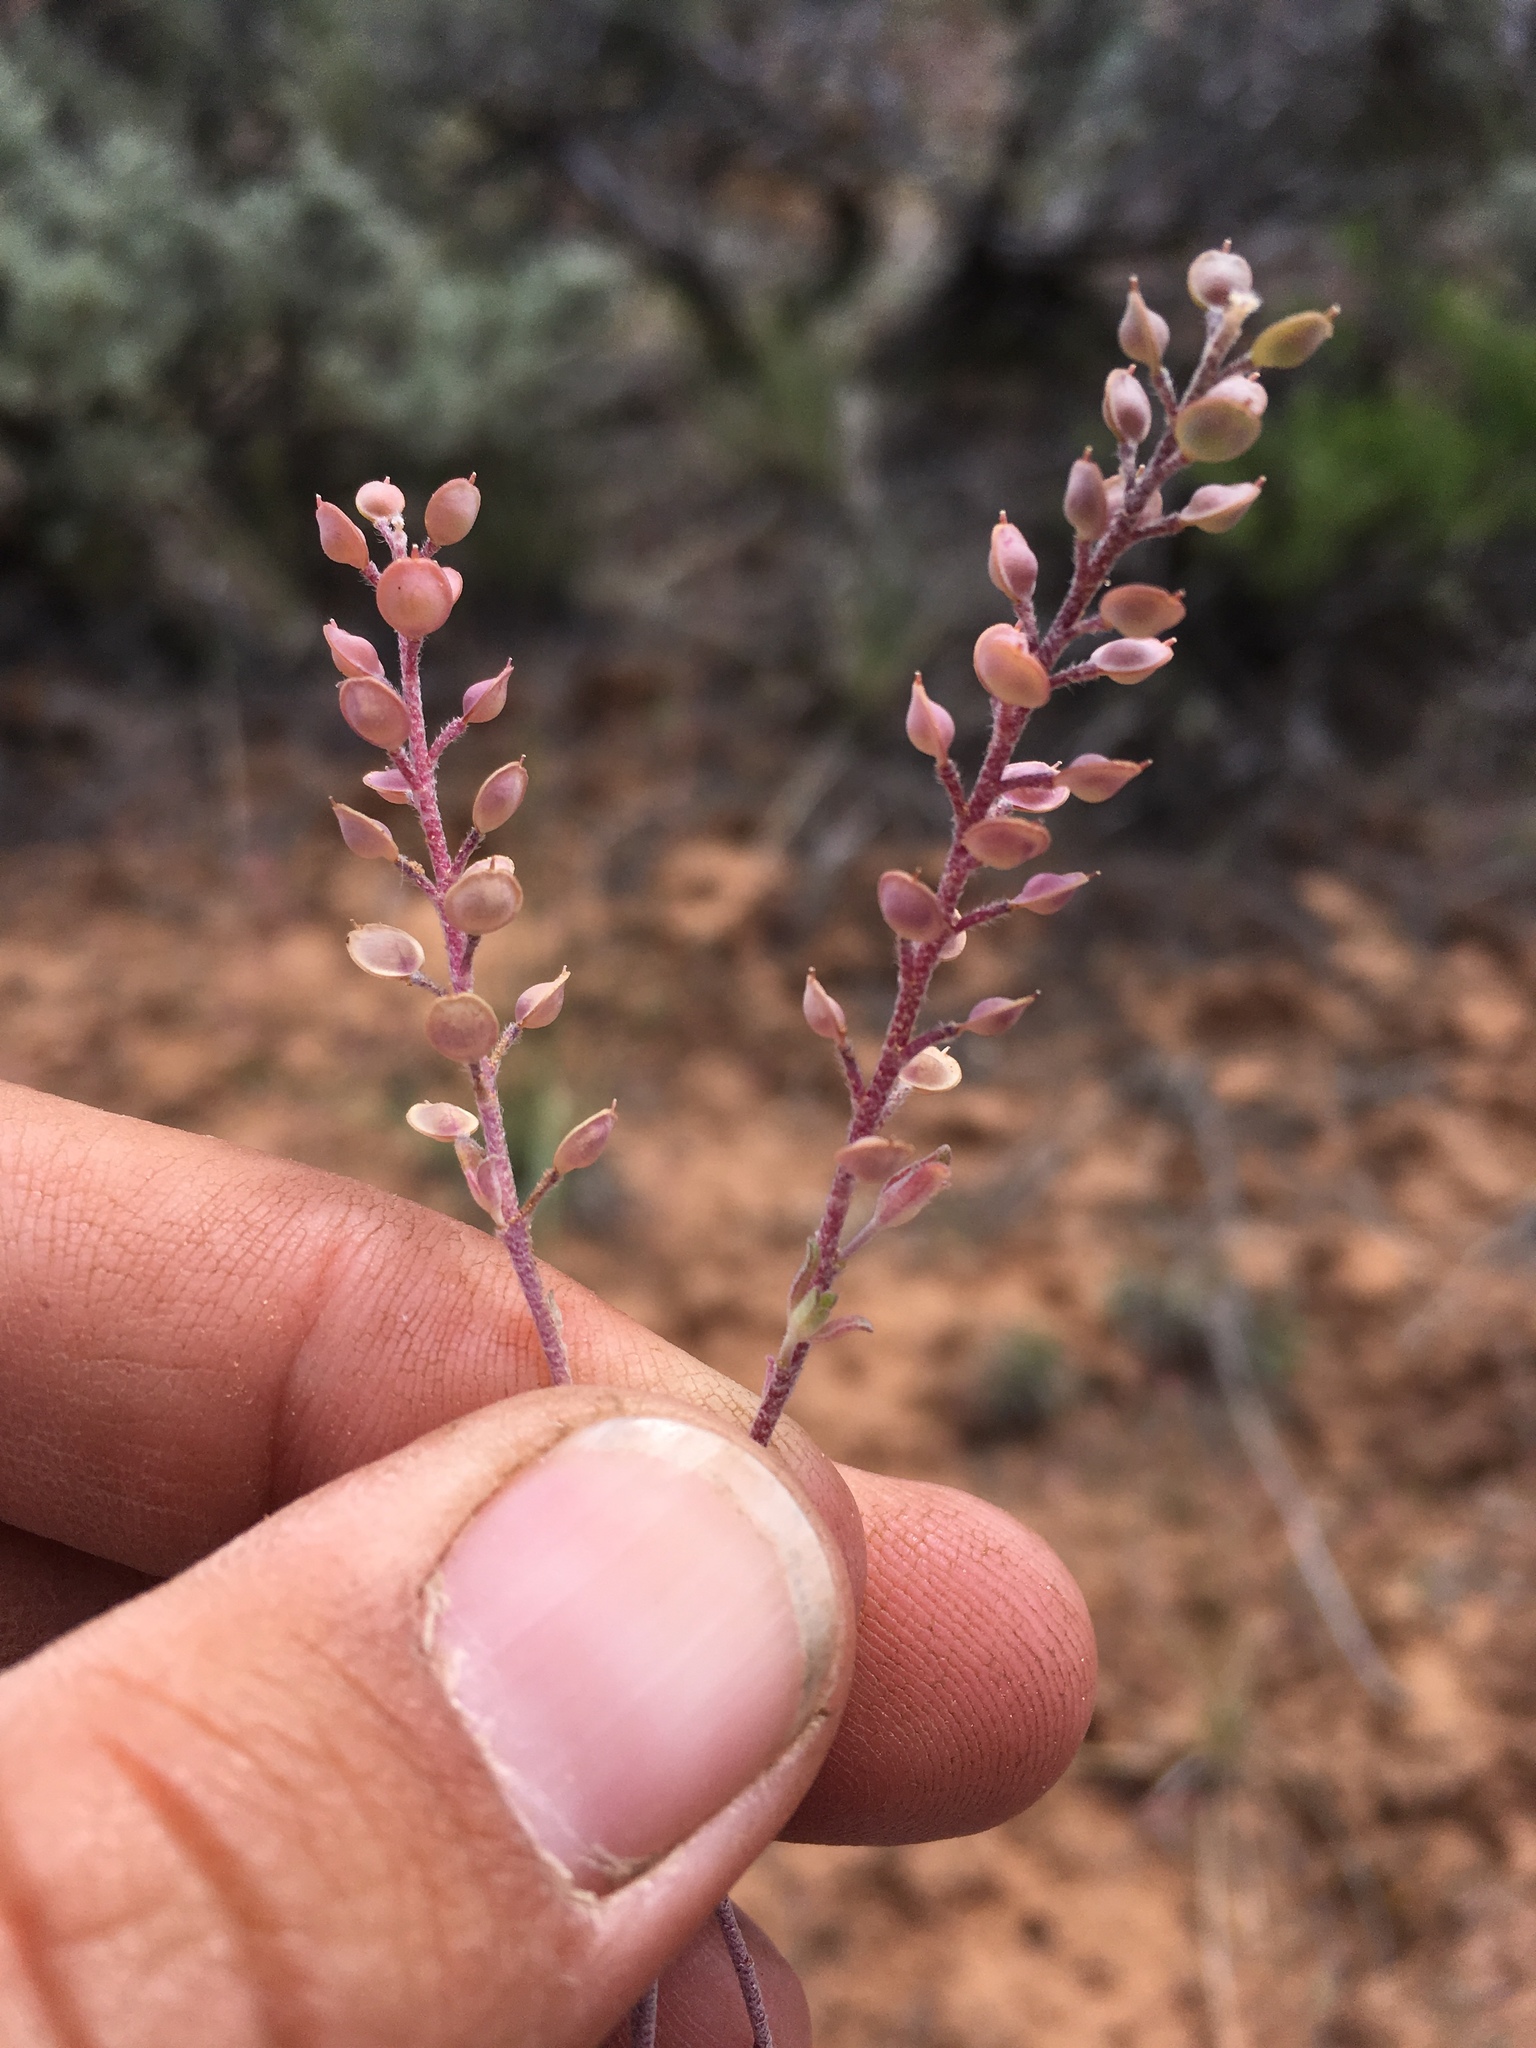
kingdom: Plantae
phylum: Tracheophyta
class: Magnoliopsida
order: Brassicales
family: Brassicaceae
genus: Alyssum
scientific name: Alyssum turkestanicum
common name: Desert alyssum
